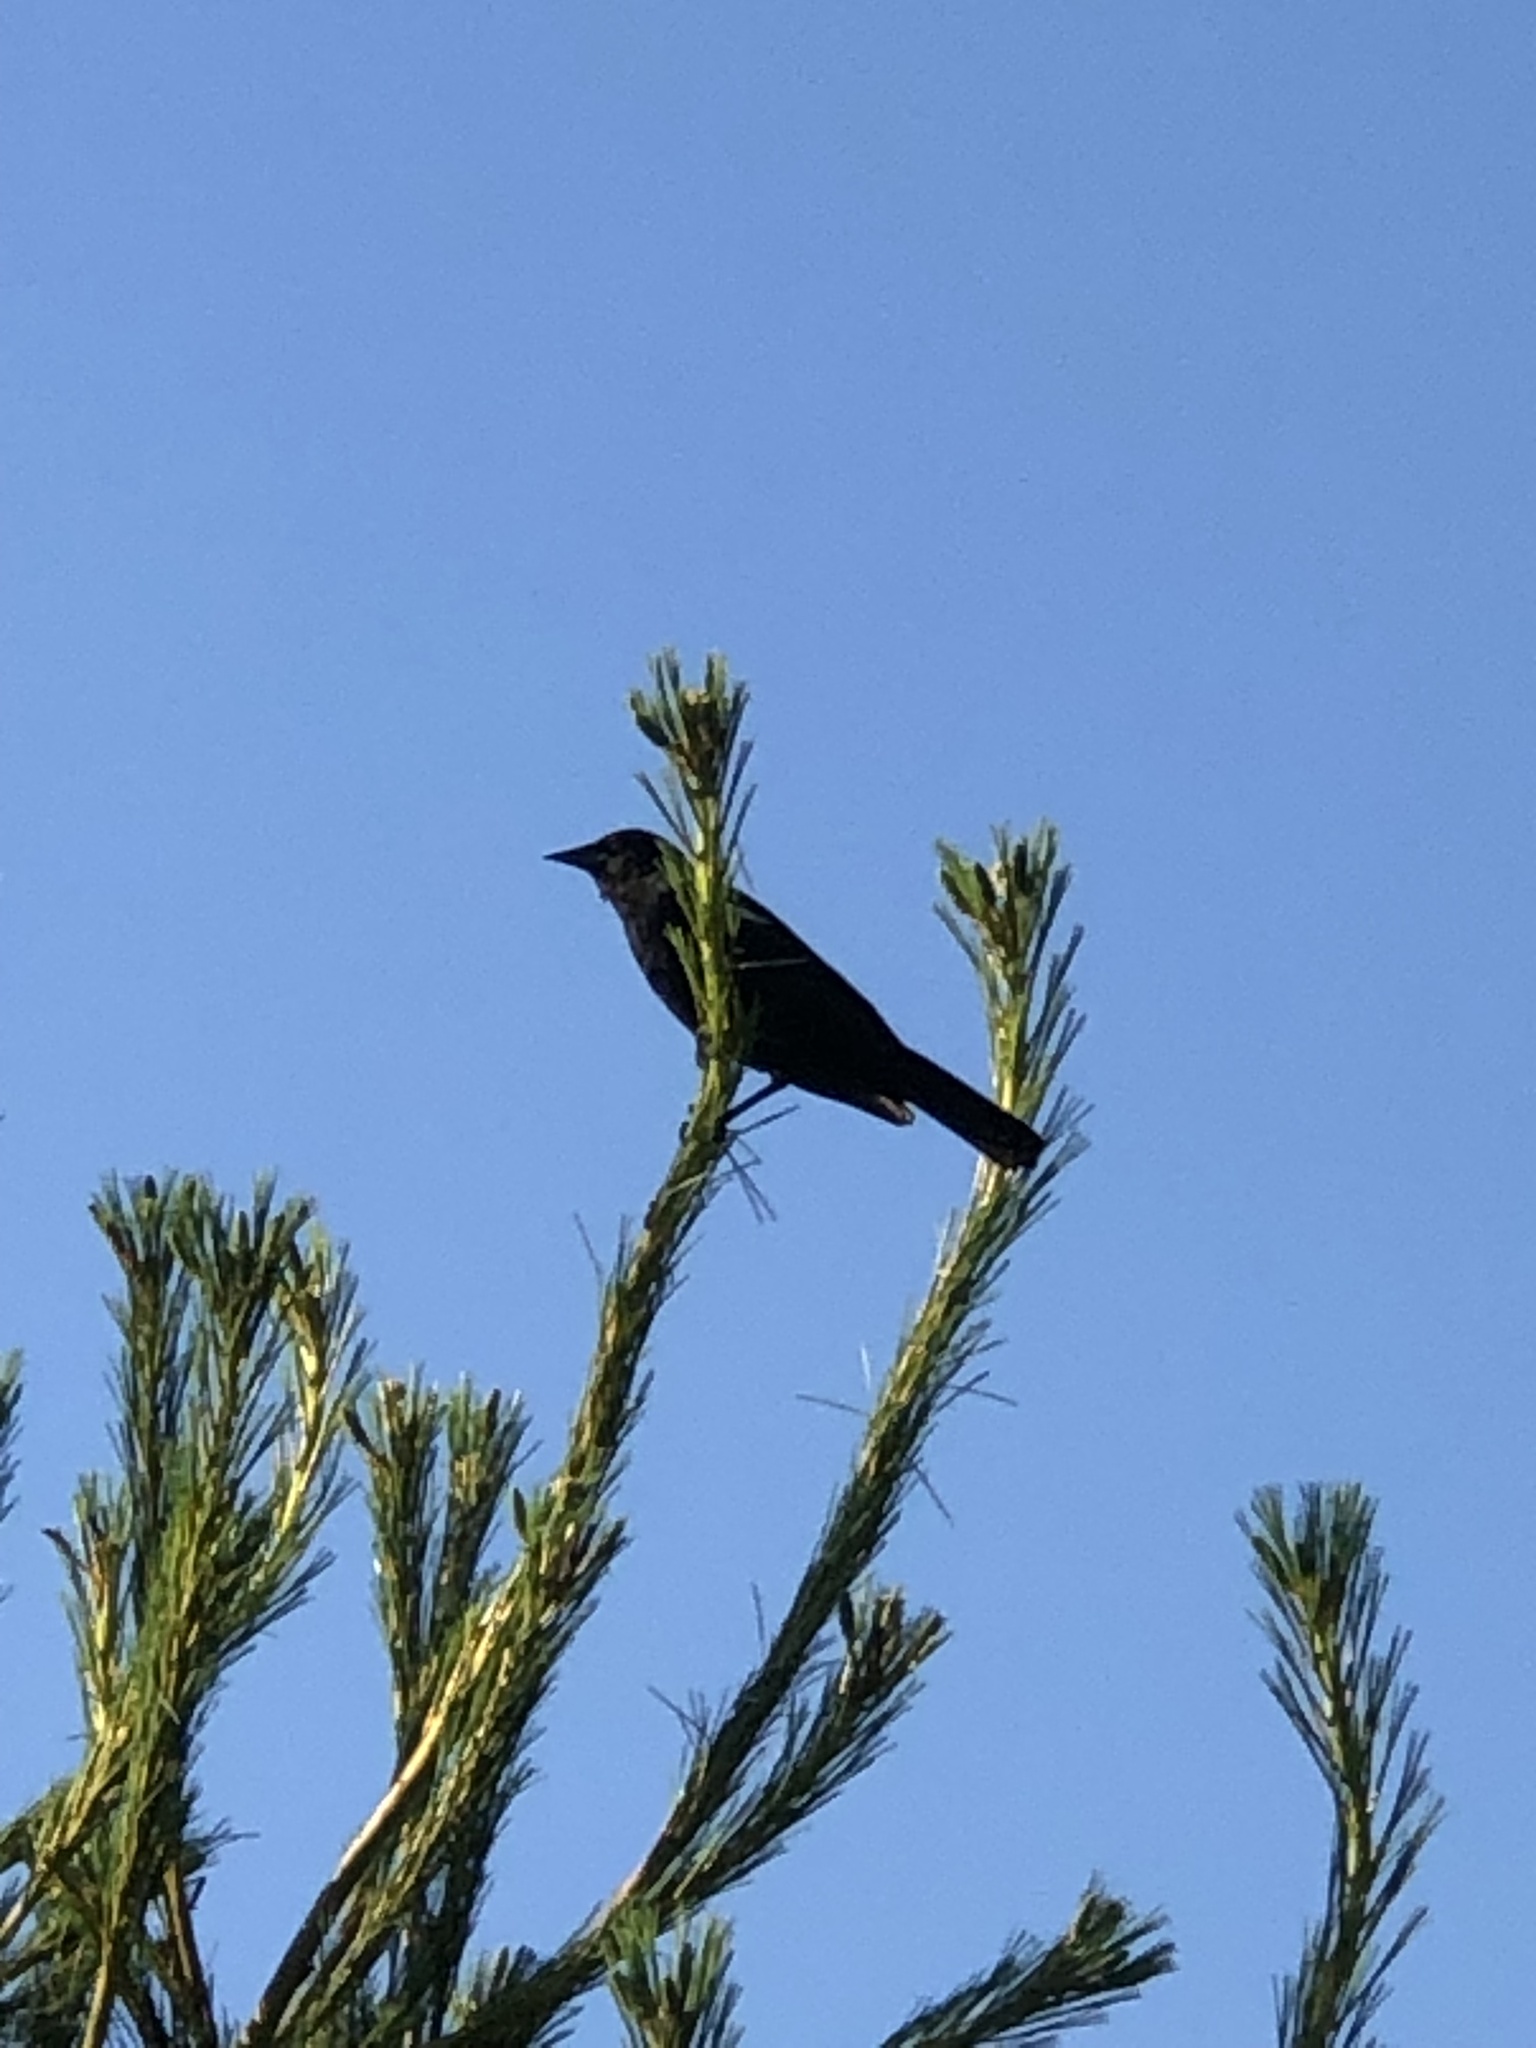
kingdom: Animalia
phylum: Chordata
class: Aves
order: Passeriformes
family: Icteridae
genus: Agelaius
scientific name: Agelaius phoeniceus
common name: Red-winged blackbird
